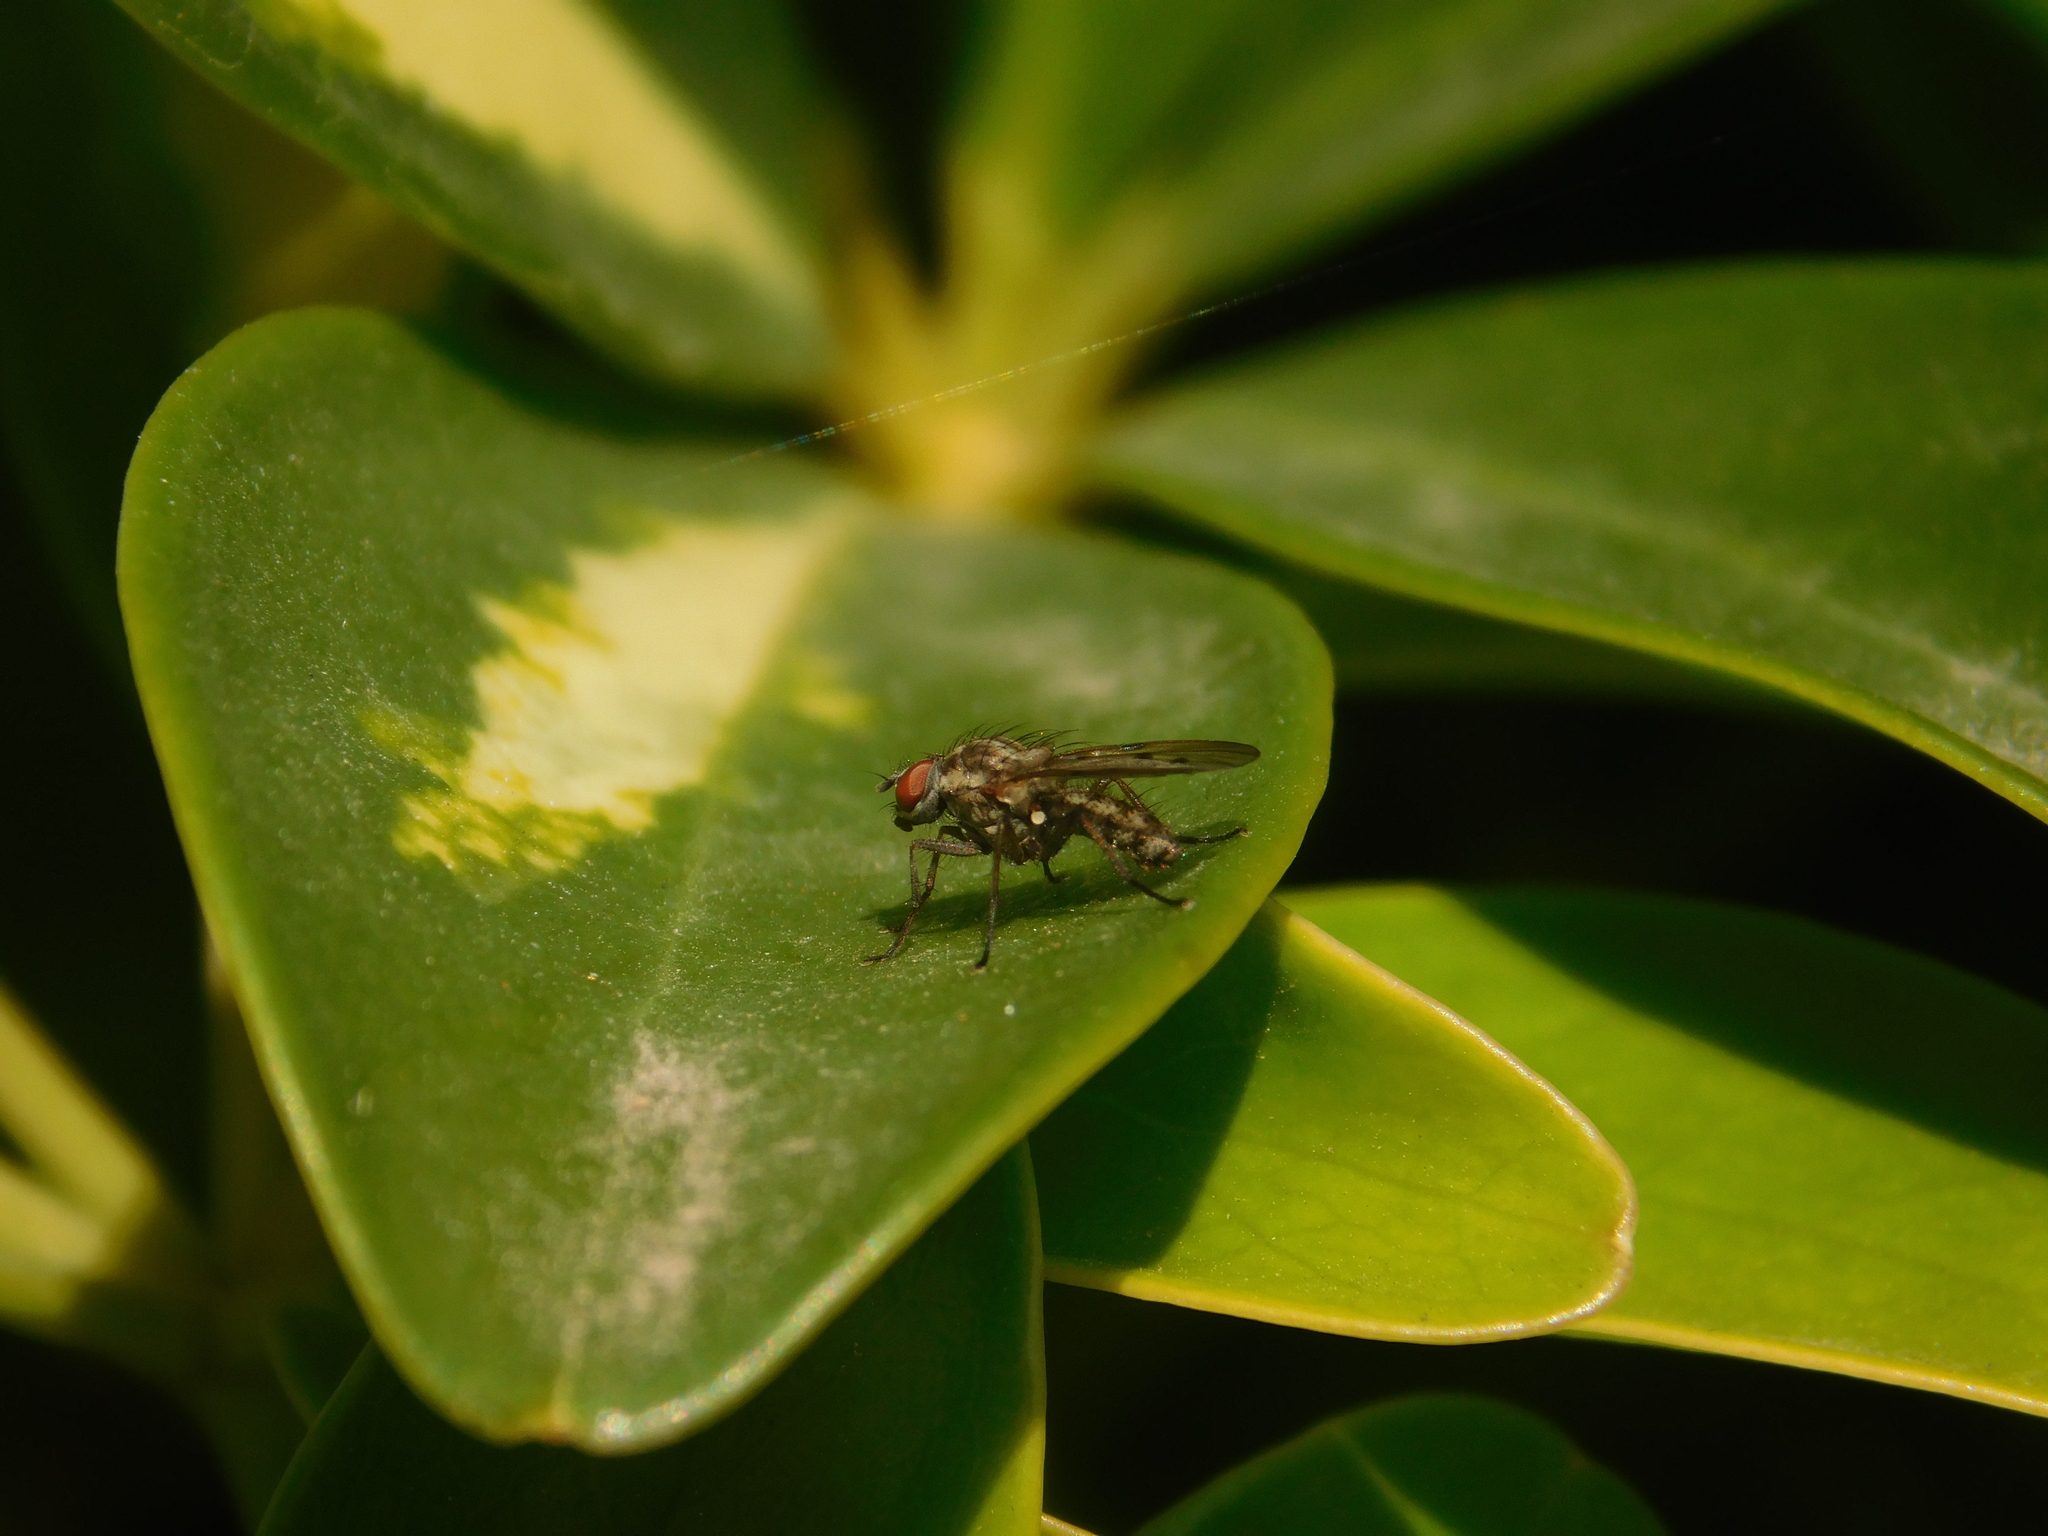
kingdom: Animalia
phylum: Arthropoda
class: Insecta
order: Diptera
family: Anthomyiidae
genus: Anthomyia
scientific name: Anthomyia punctipennis
